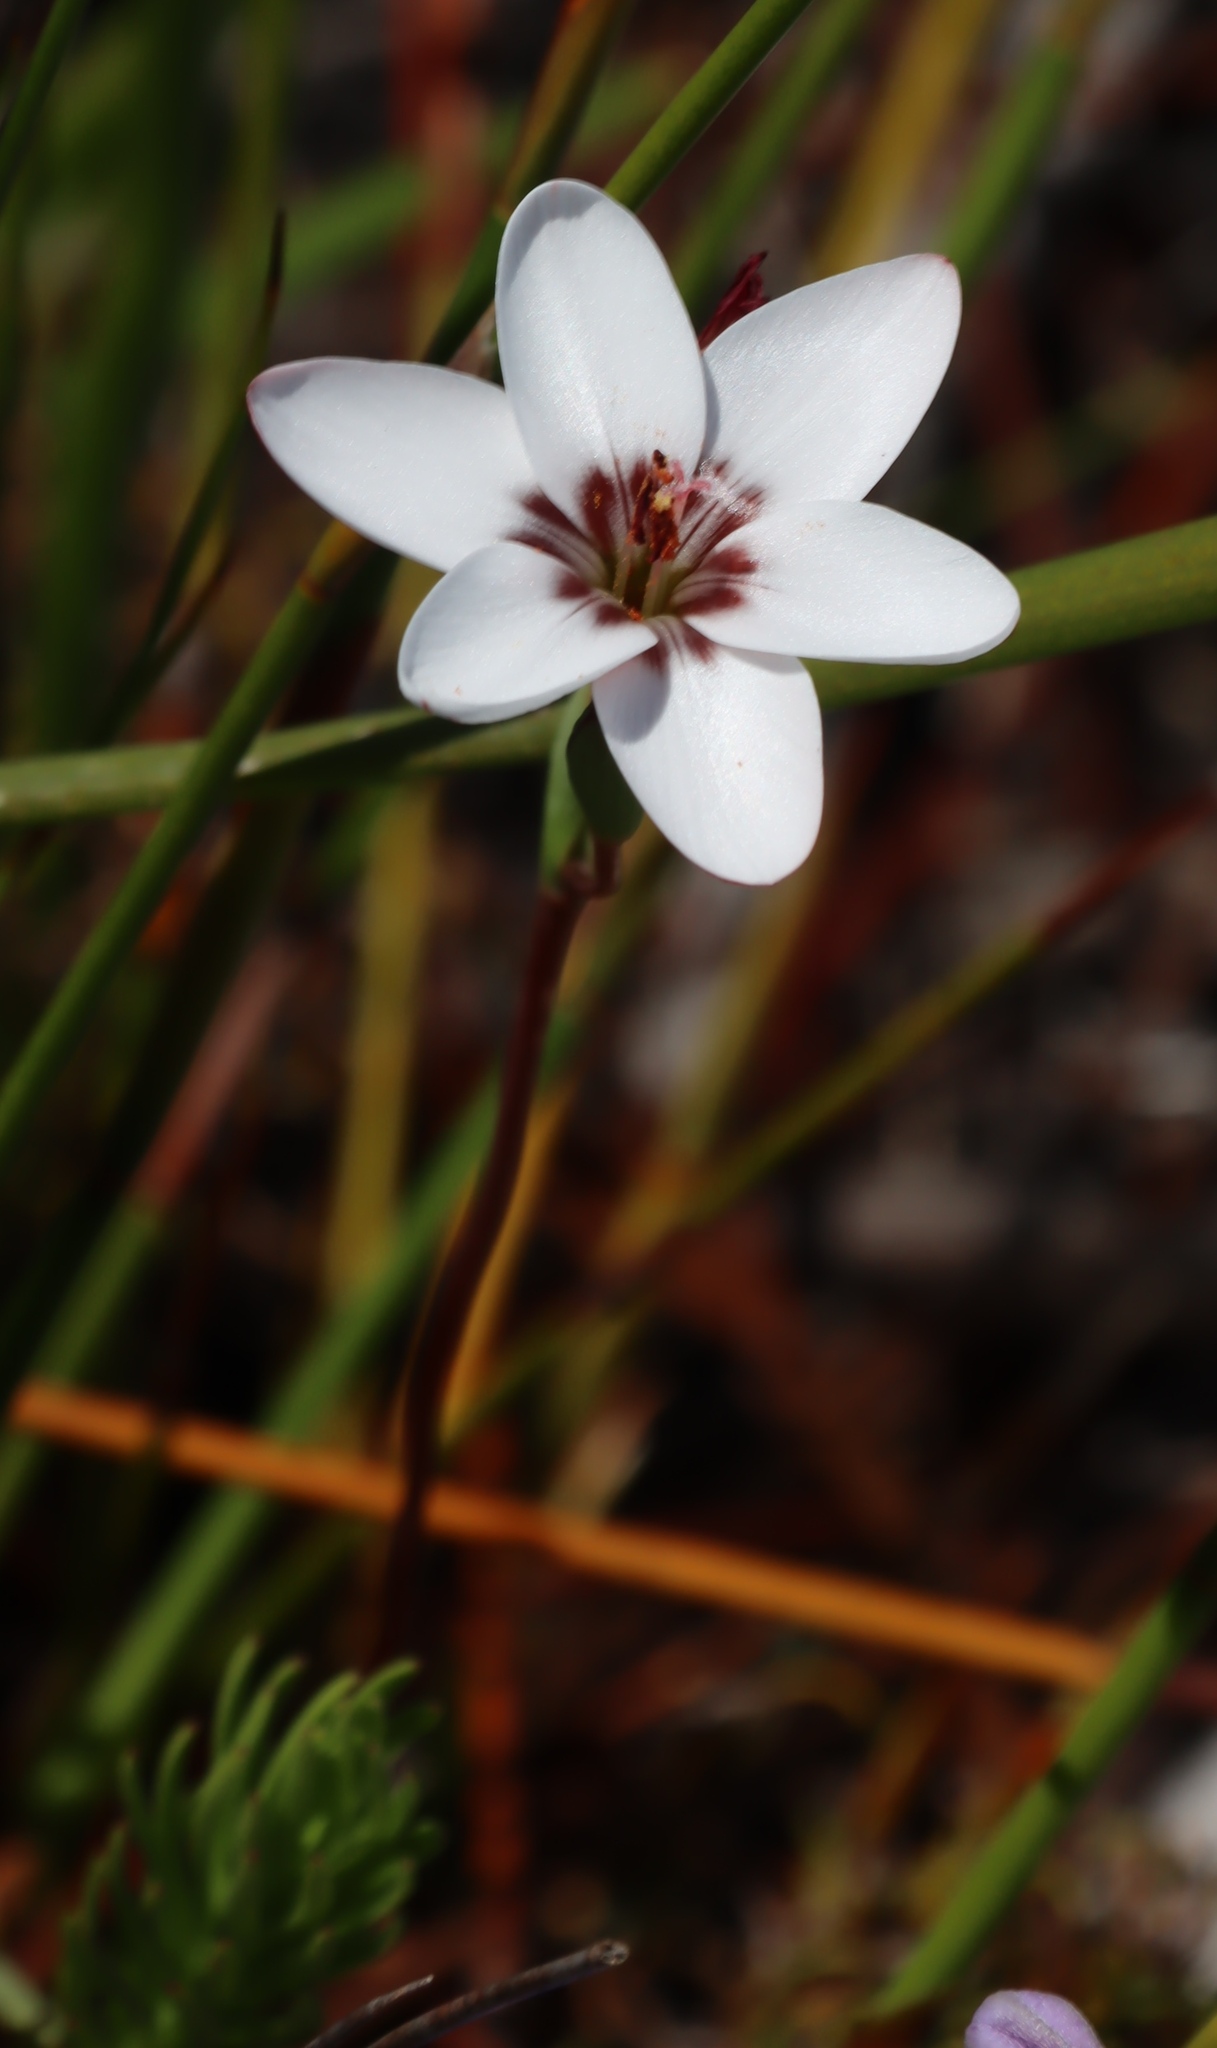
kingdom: Plantae
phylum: Tracheophyta
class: Liliopsida
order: Asparagales
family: Iridaceae
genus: Geissorhiza
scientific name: Geissorhiza ovata
